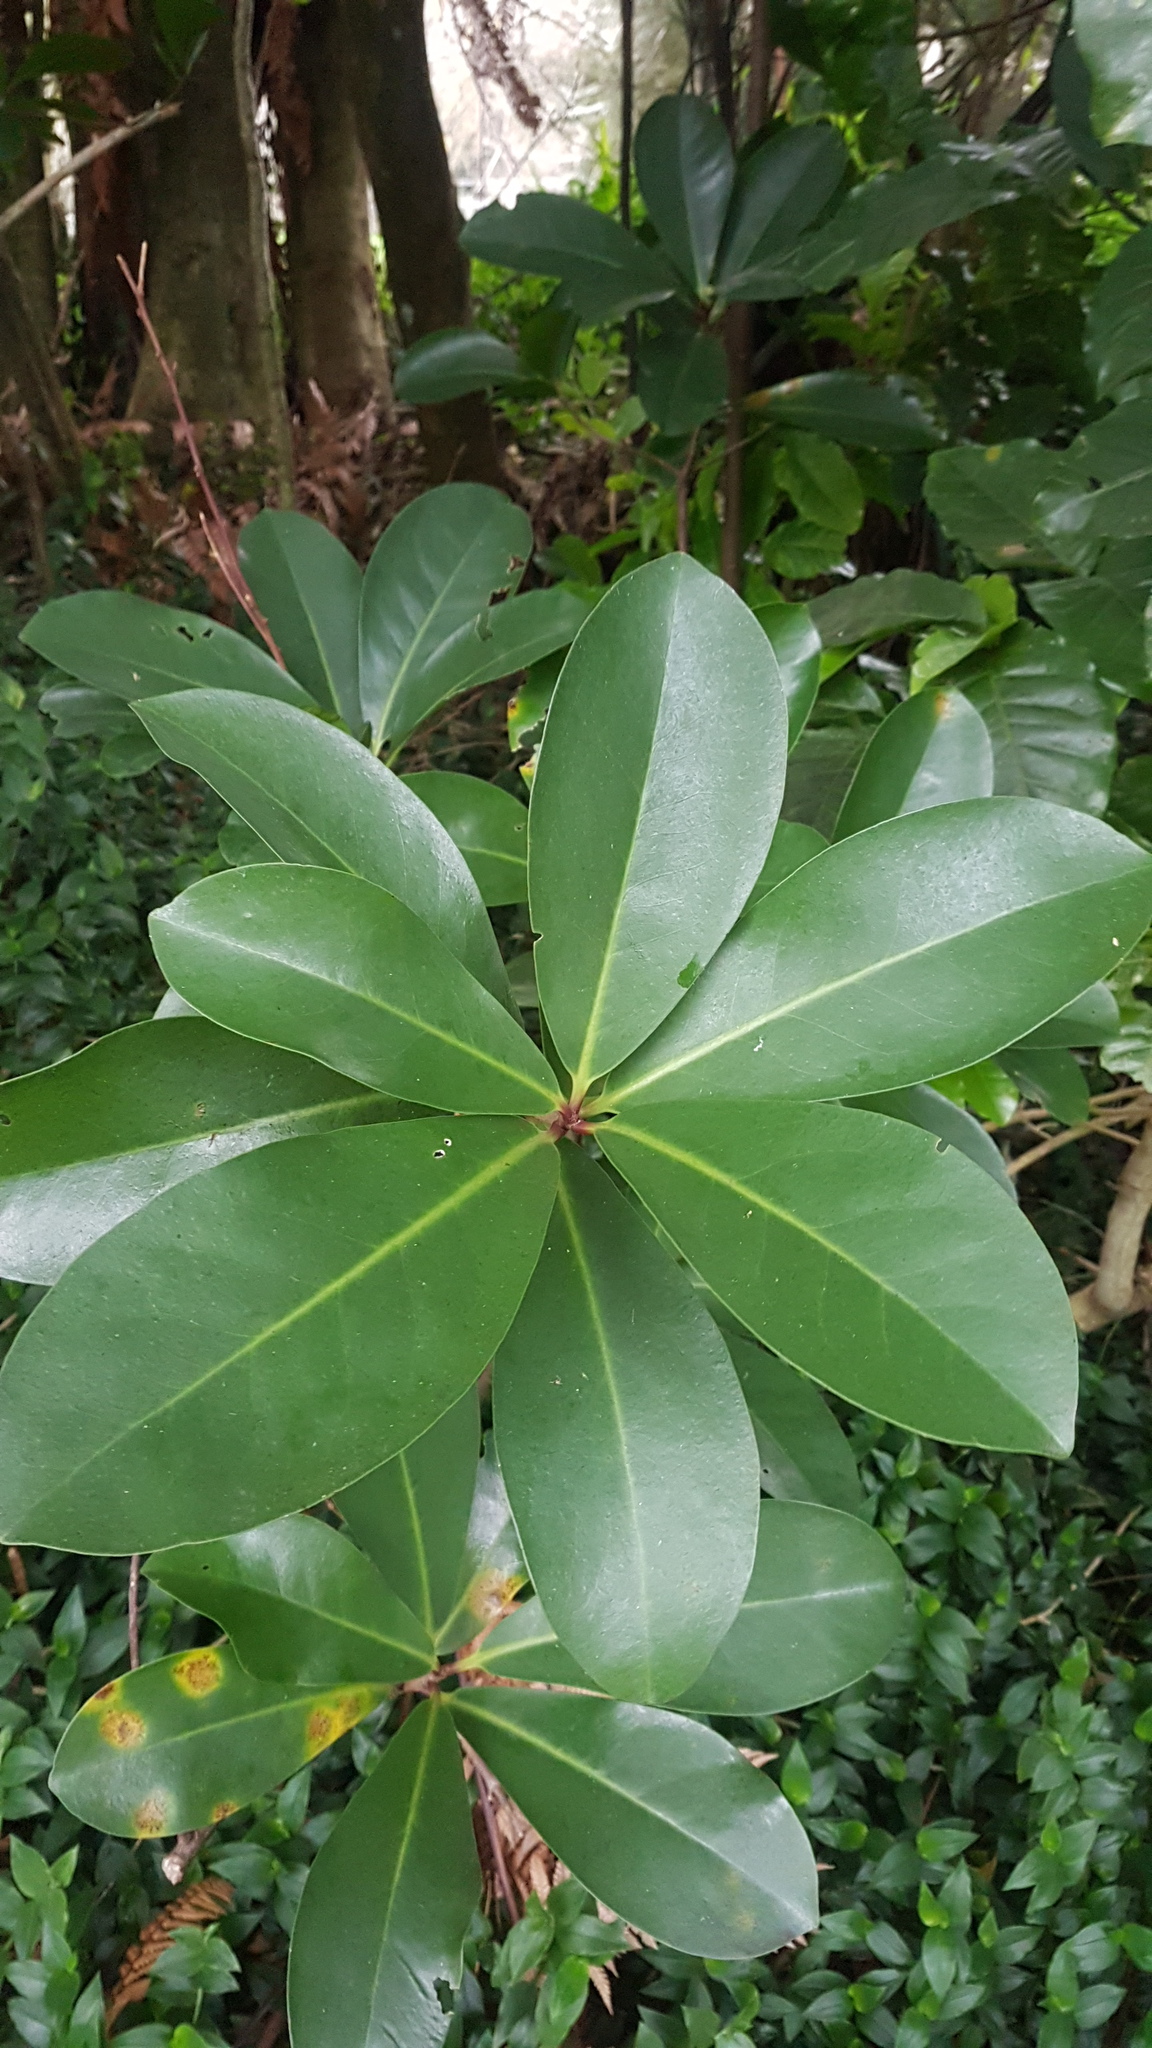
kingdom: Plantae
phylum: Tracheophyta
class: Magnoliopsida
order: Cucurbitales
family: Corynocarpaceae
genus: Corynocarpus
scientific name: Corynocarpus laevigatus
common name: New zealand laurel
